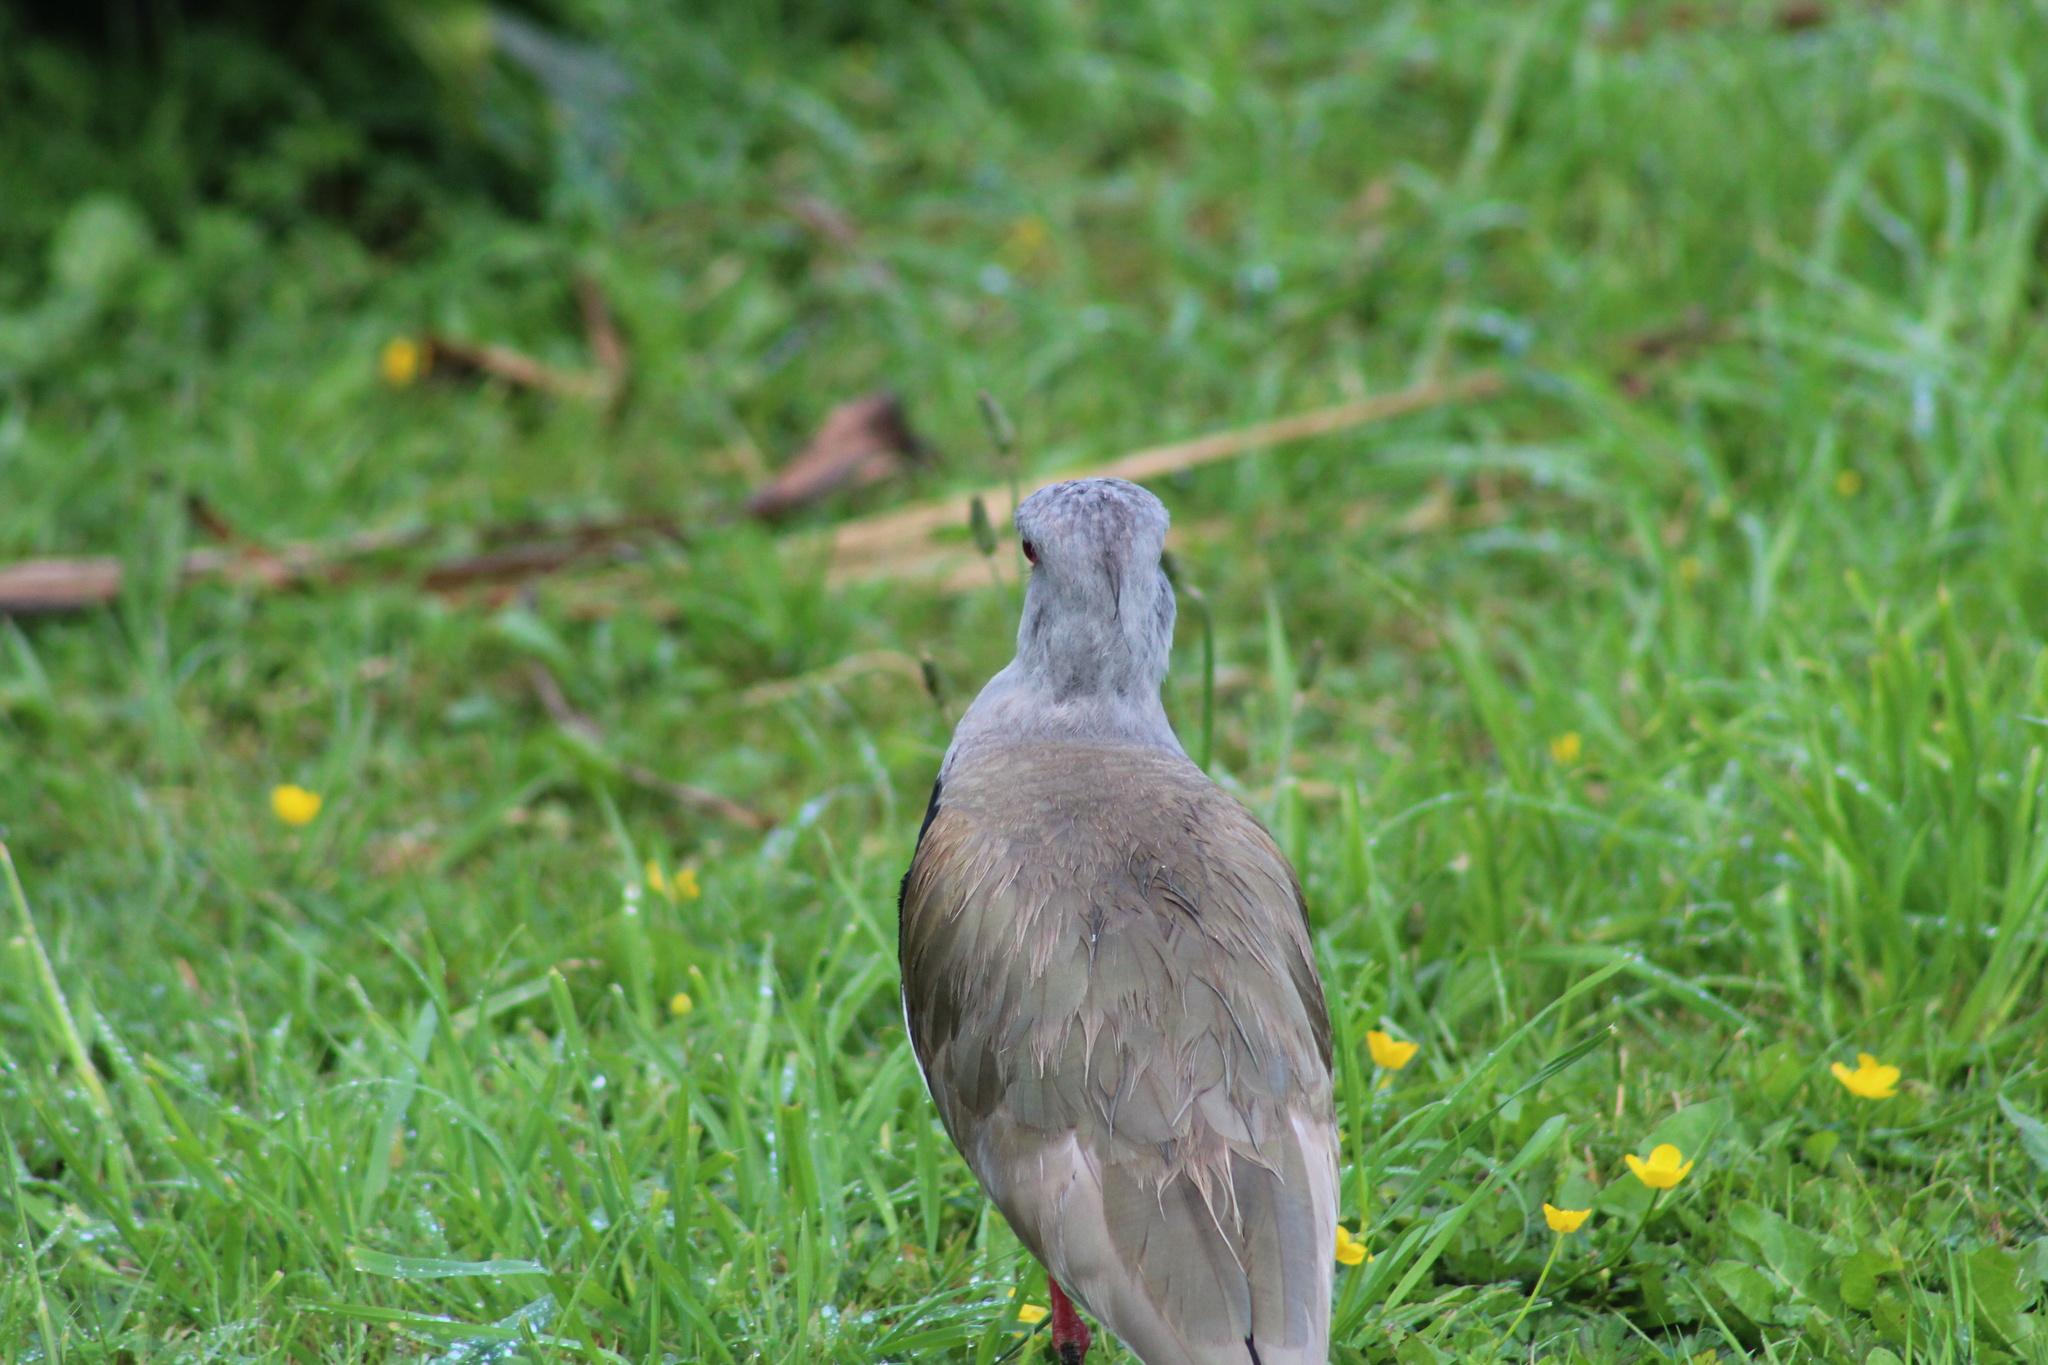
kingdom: Animalia
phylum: Chordata
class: Aves
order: Charadriiformes
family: Charadriidae
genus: Vanellus
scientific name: Vanellus chilensis
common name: Southern lapwing
